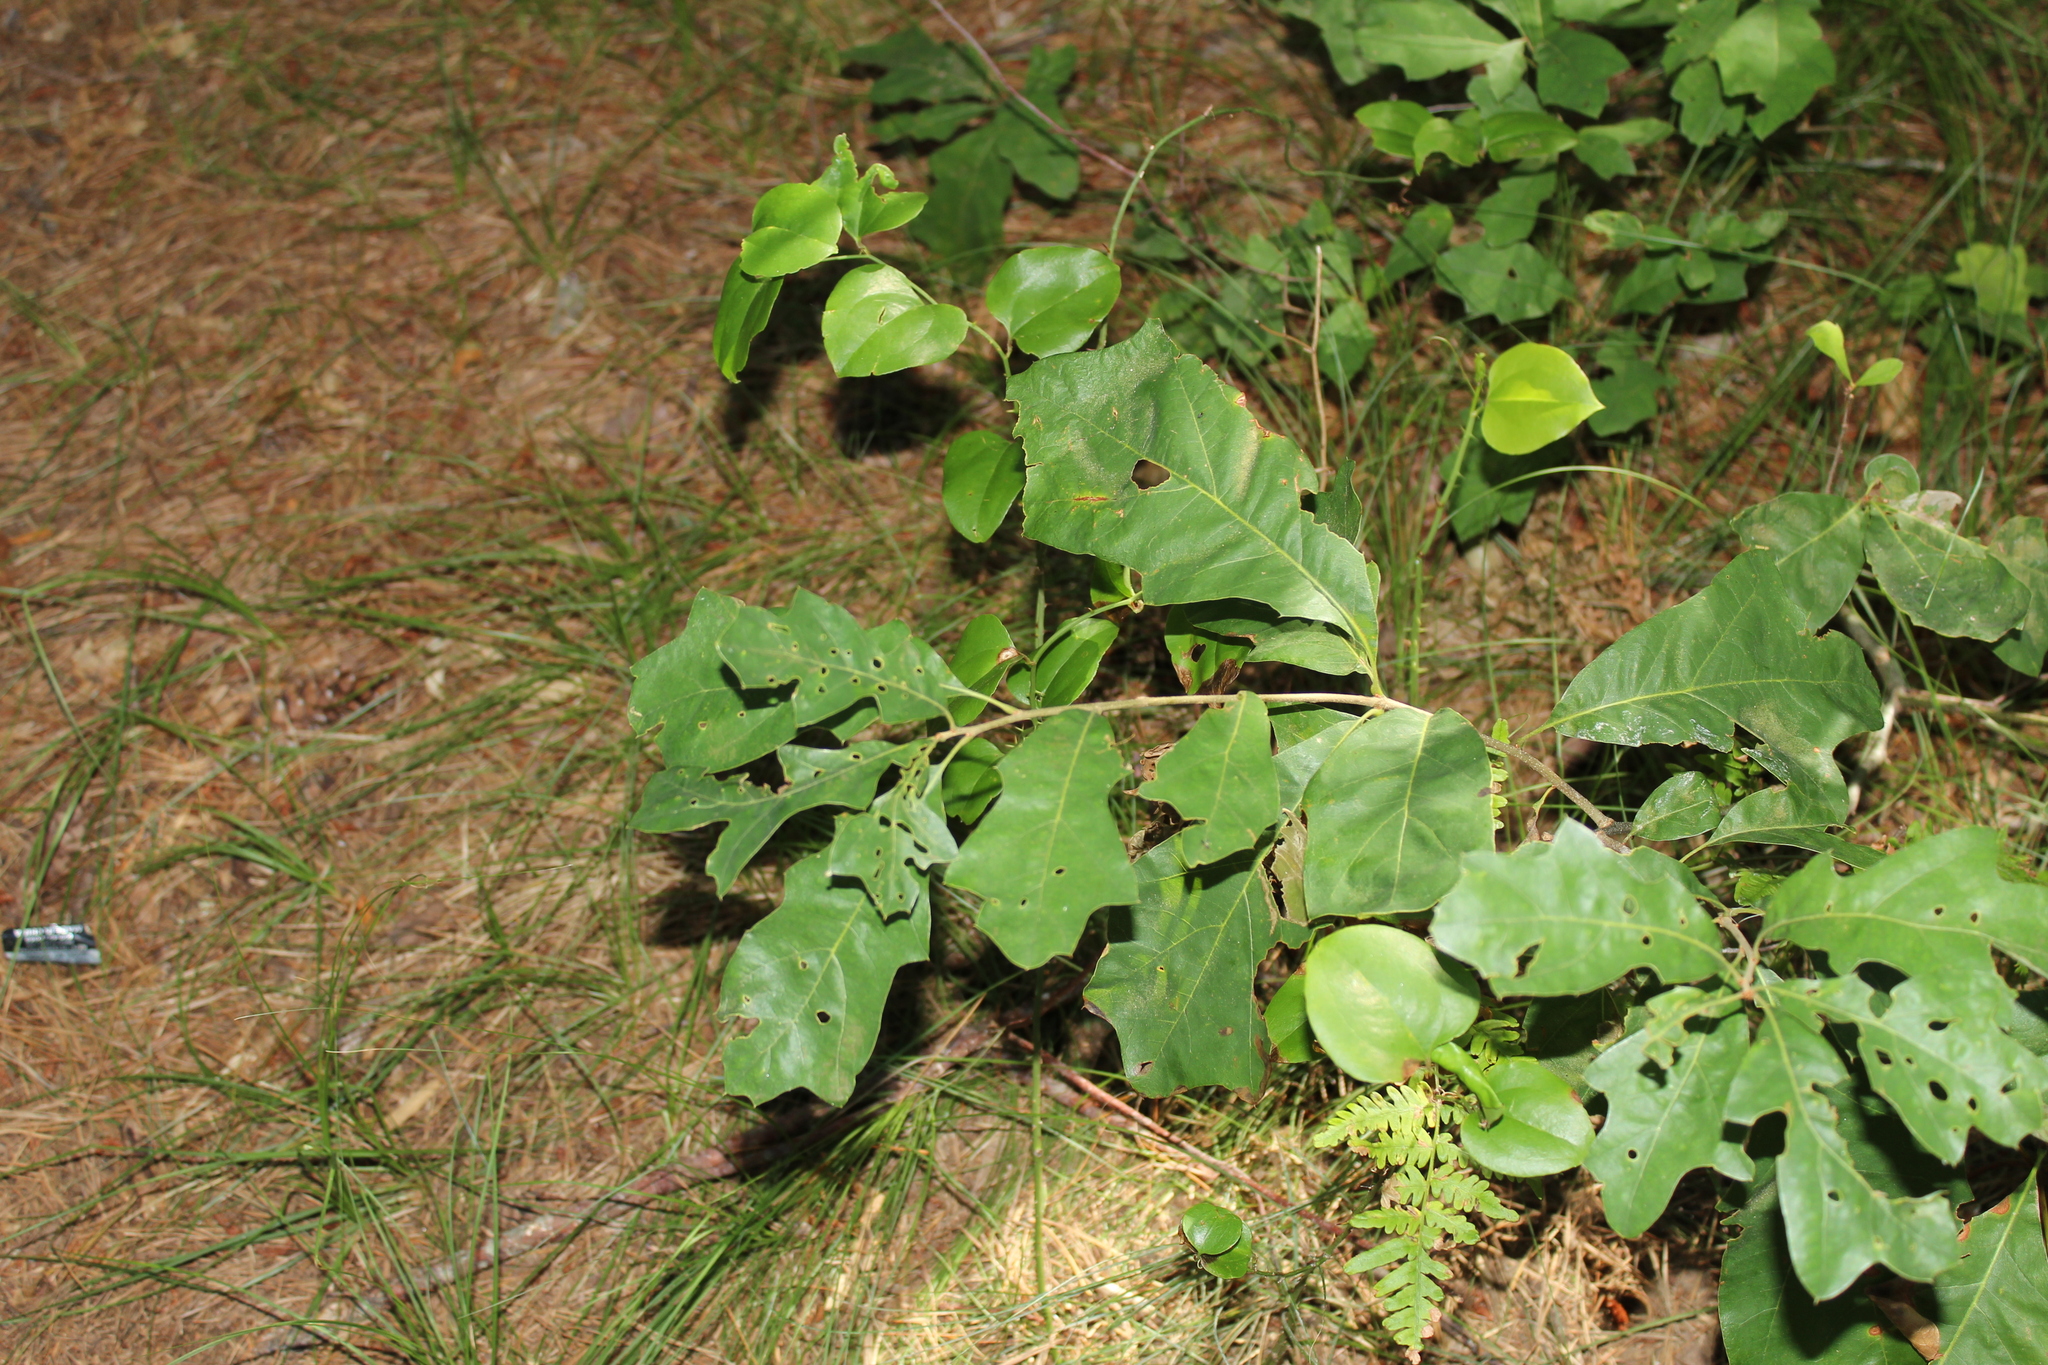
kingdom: Plantae
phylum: Tracheophyta
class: Magnoliopsida
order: Fagales
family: Fagaceae
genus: Quercus
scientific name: Quercus ilicifolia
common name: Bear oak
